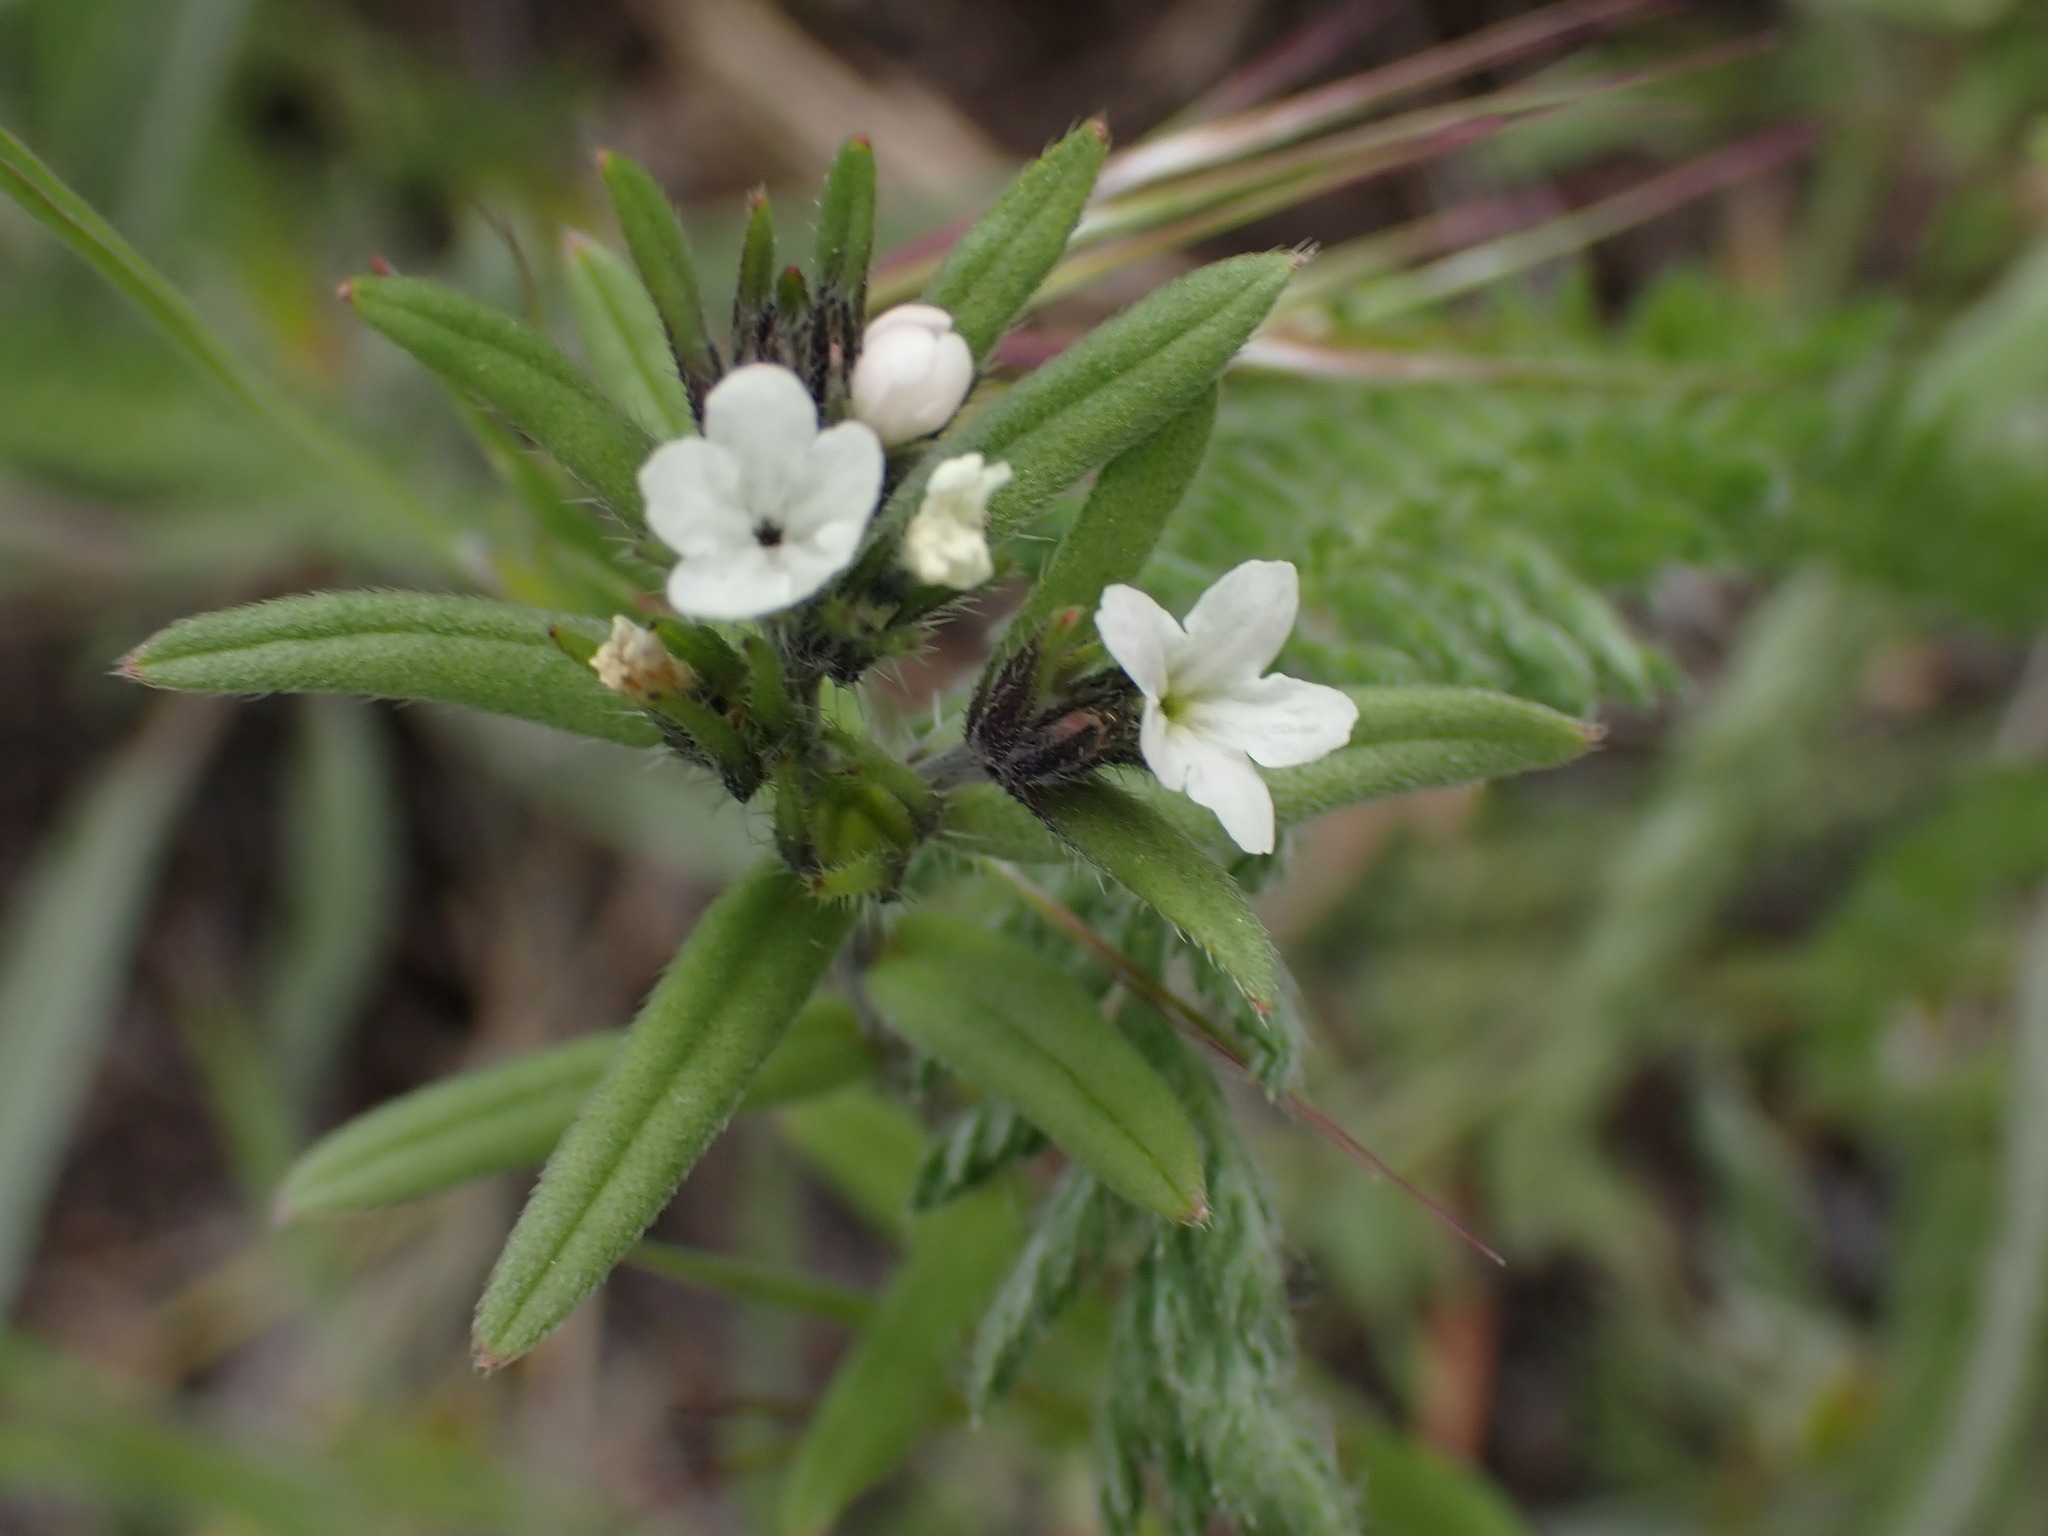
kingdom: Plantae
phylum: Tracheophyta
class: Magnoliopsida
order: Boraginales
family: Boraginaceae
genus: Buglossoides
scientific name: Buglossoides arvensis
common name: Corn gromwell
